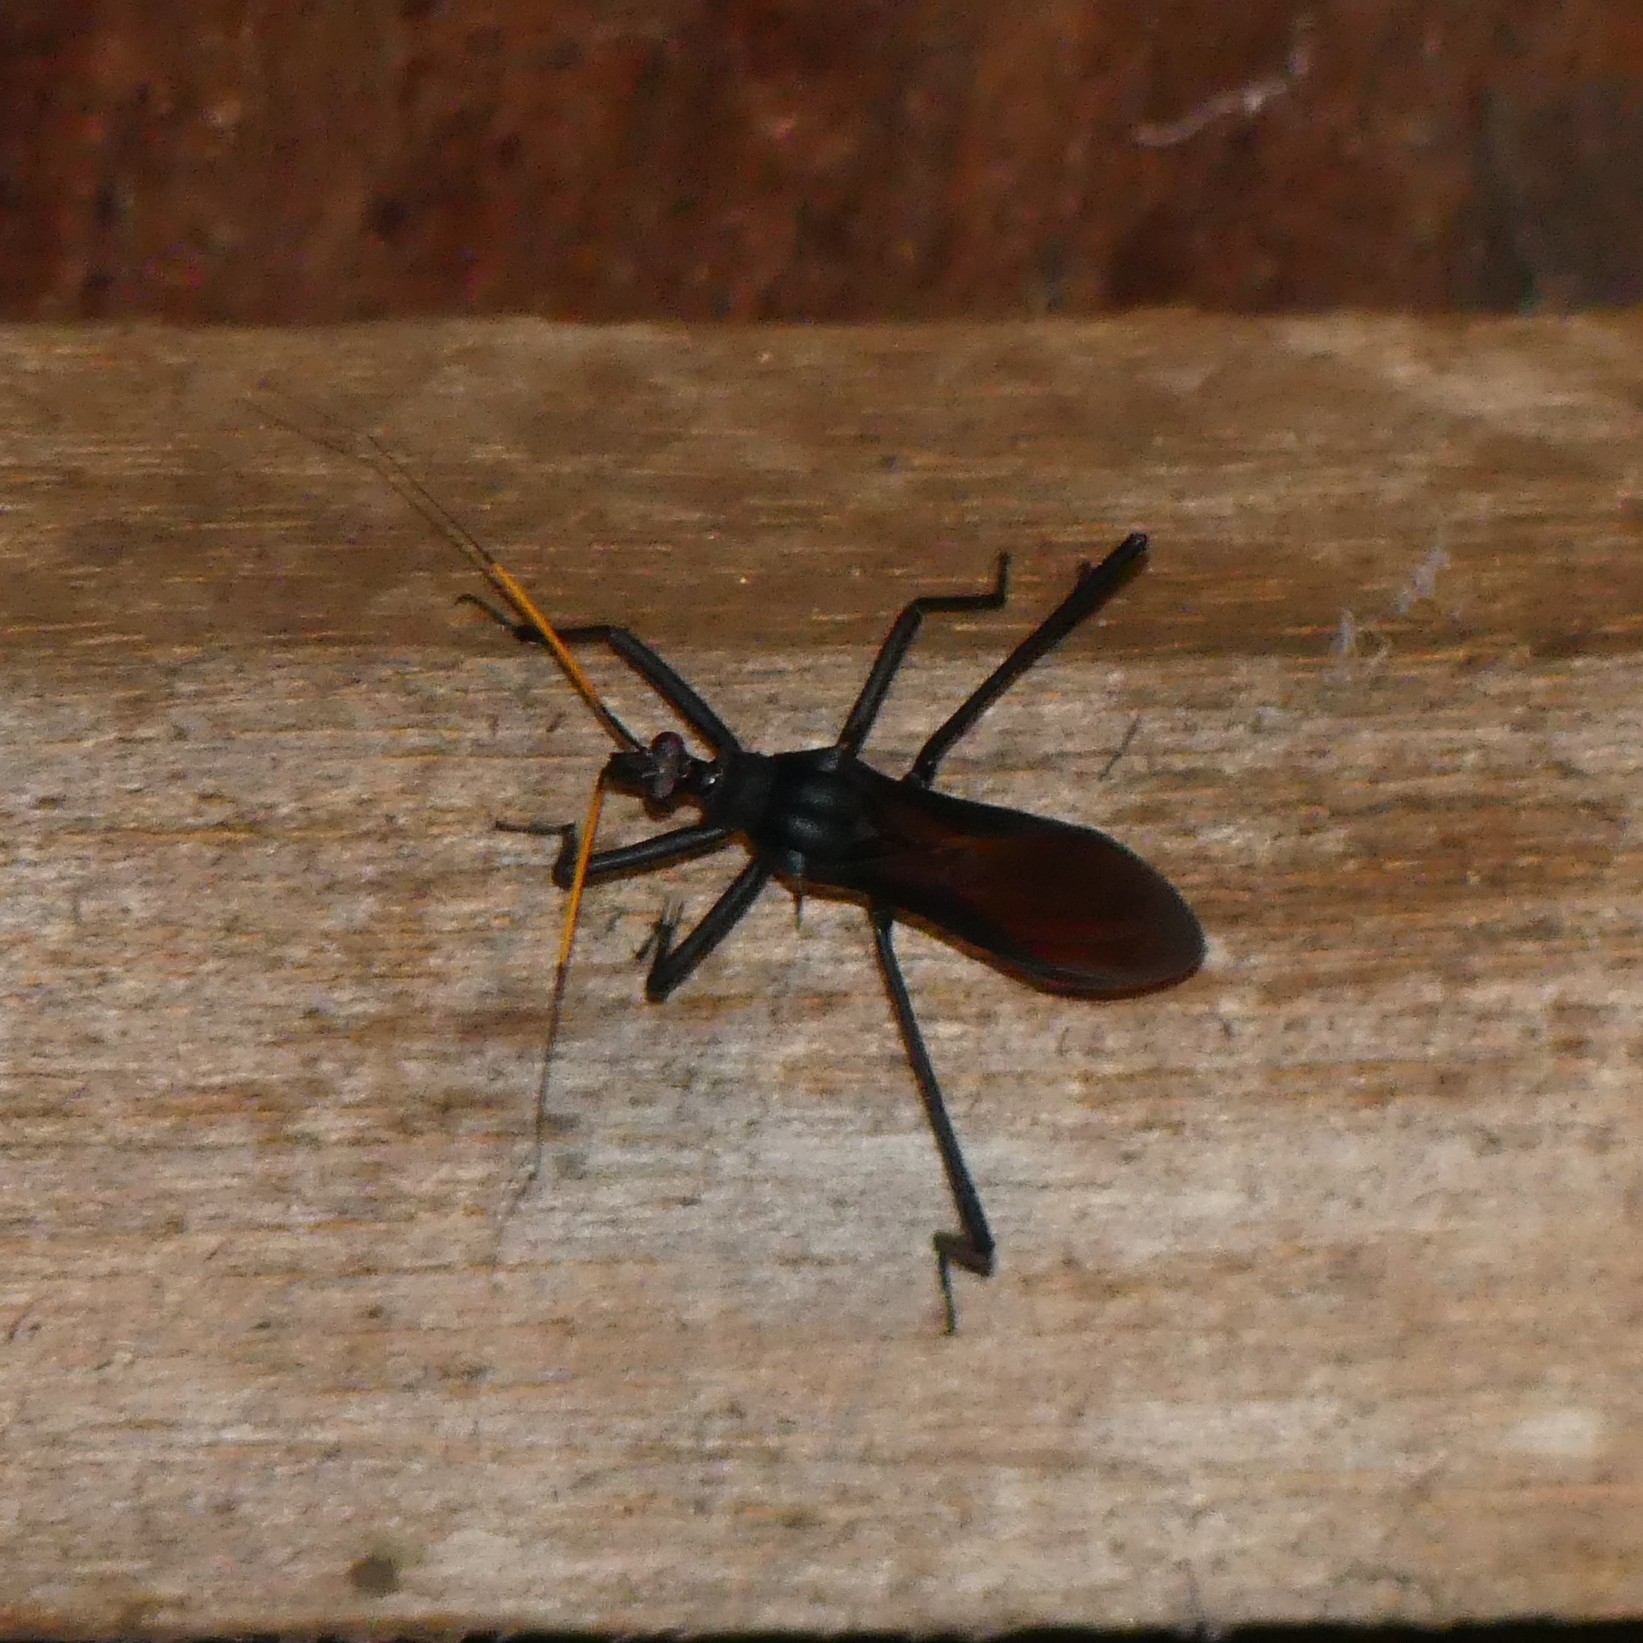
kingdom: Animalia
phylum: Arthropoda
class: Insecta
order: Hemiptera
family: Reduviidae
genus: Zelurus
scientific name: Zelurus spinidorsis
